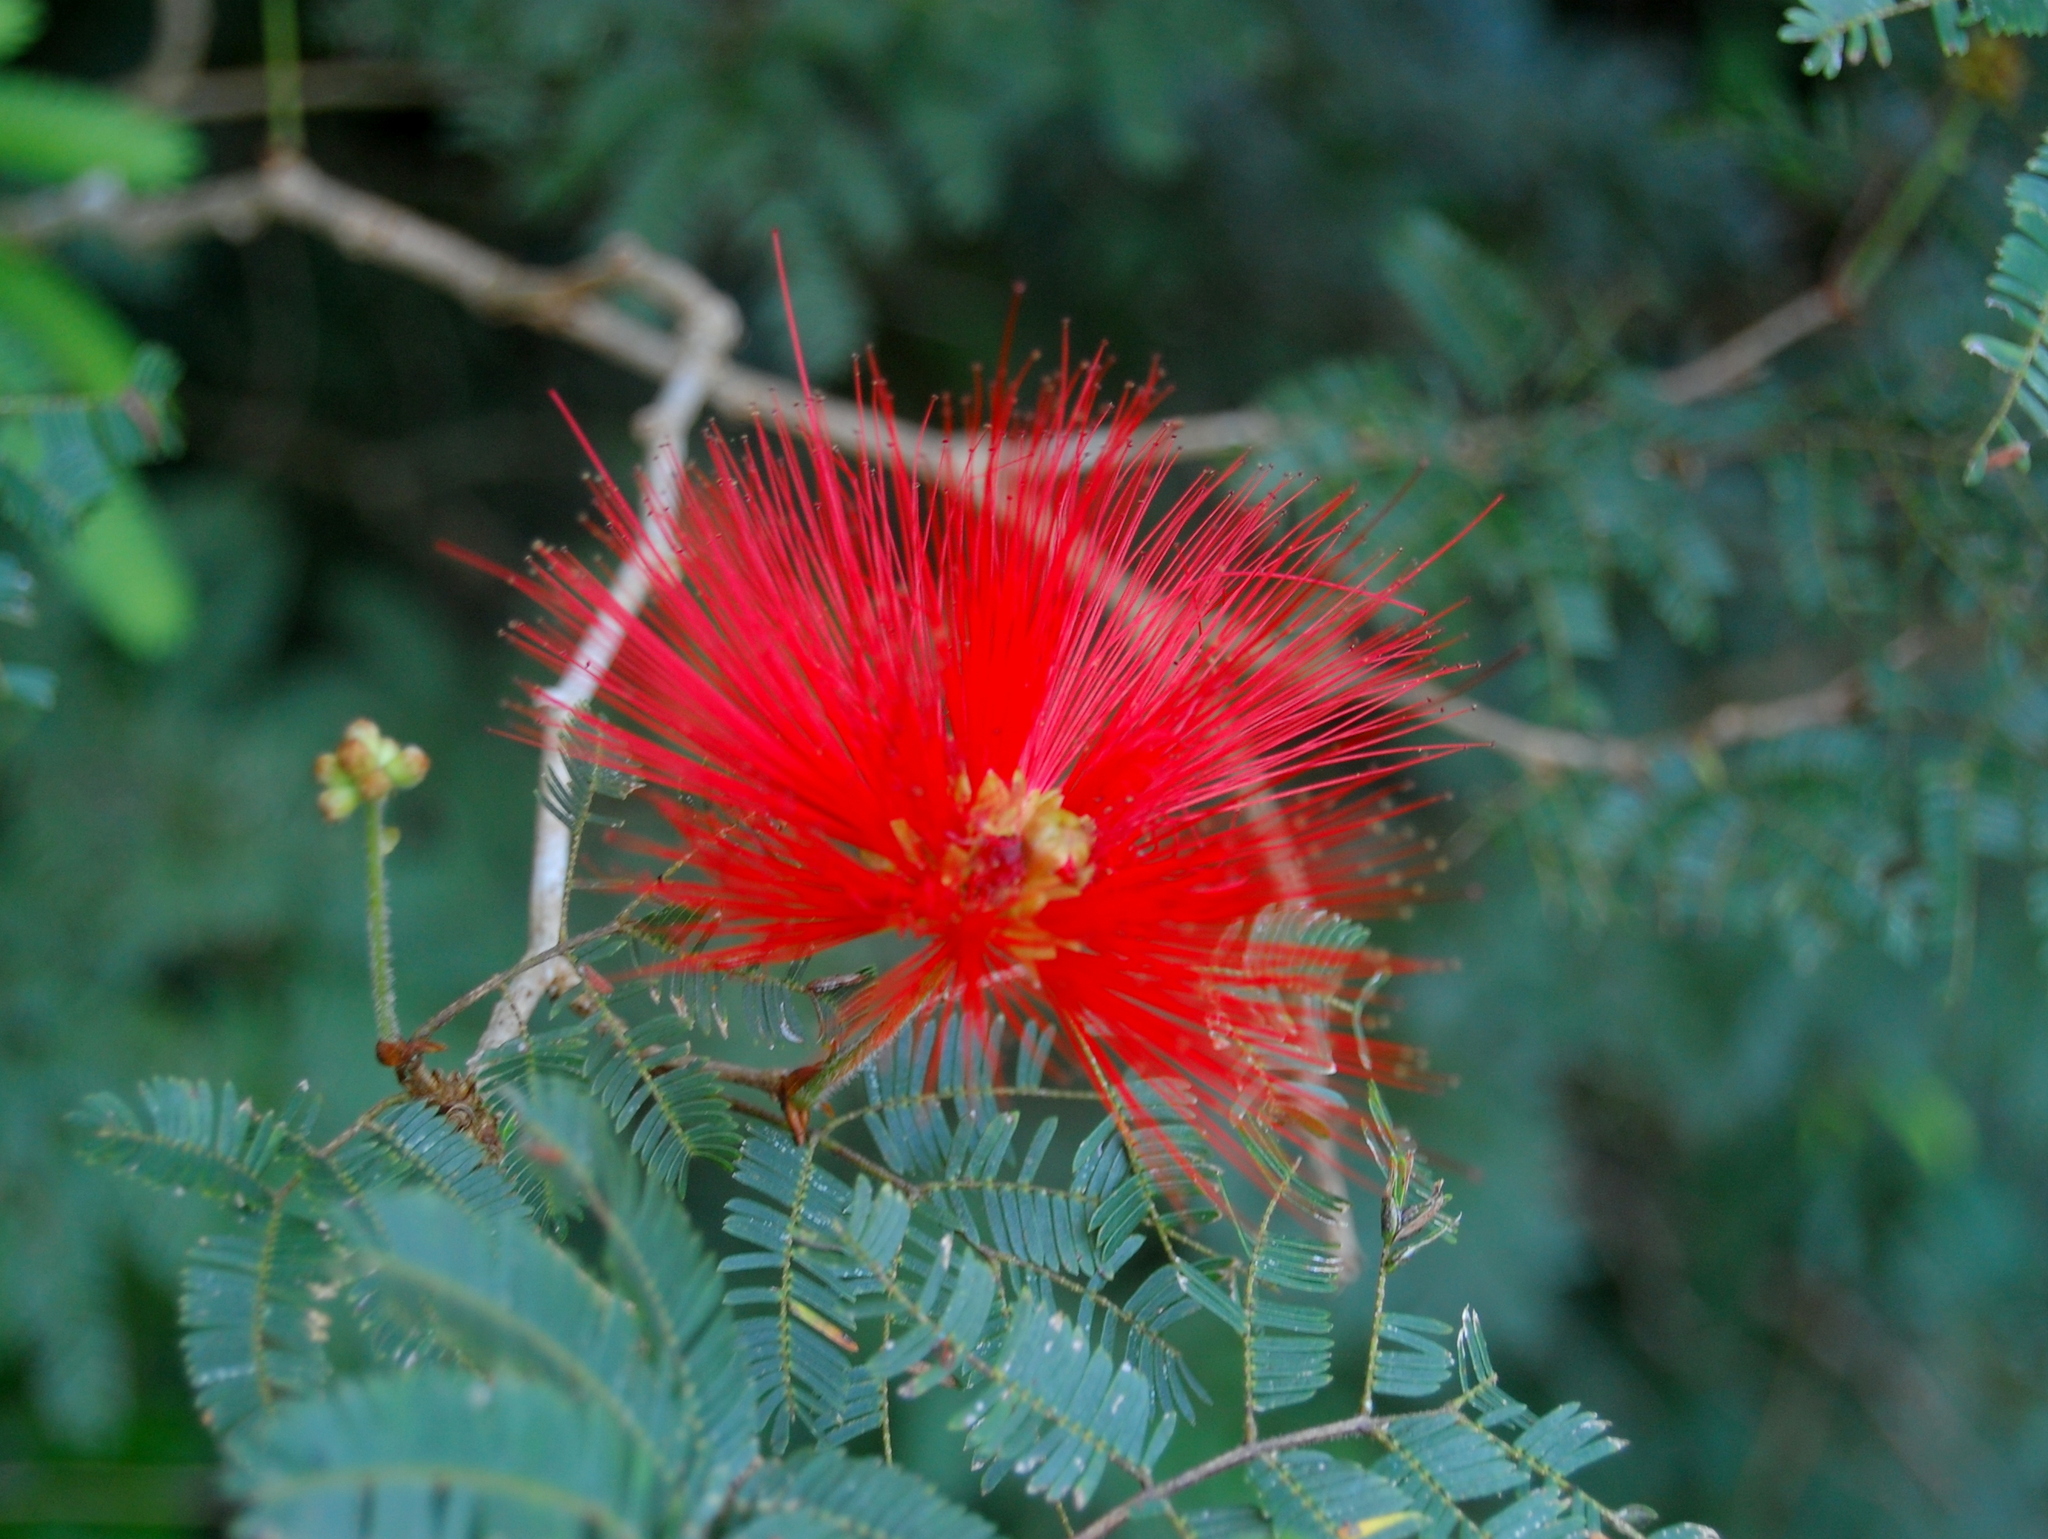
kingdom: Plantae
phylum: Tracheophyta
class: Magnoliopsida
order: Fabales
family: Fabaceae
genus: Calliandra
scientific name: Calliandra tweediei
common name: Mexican flamebush
